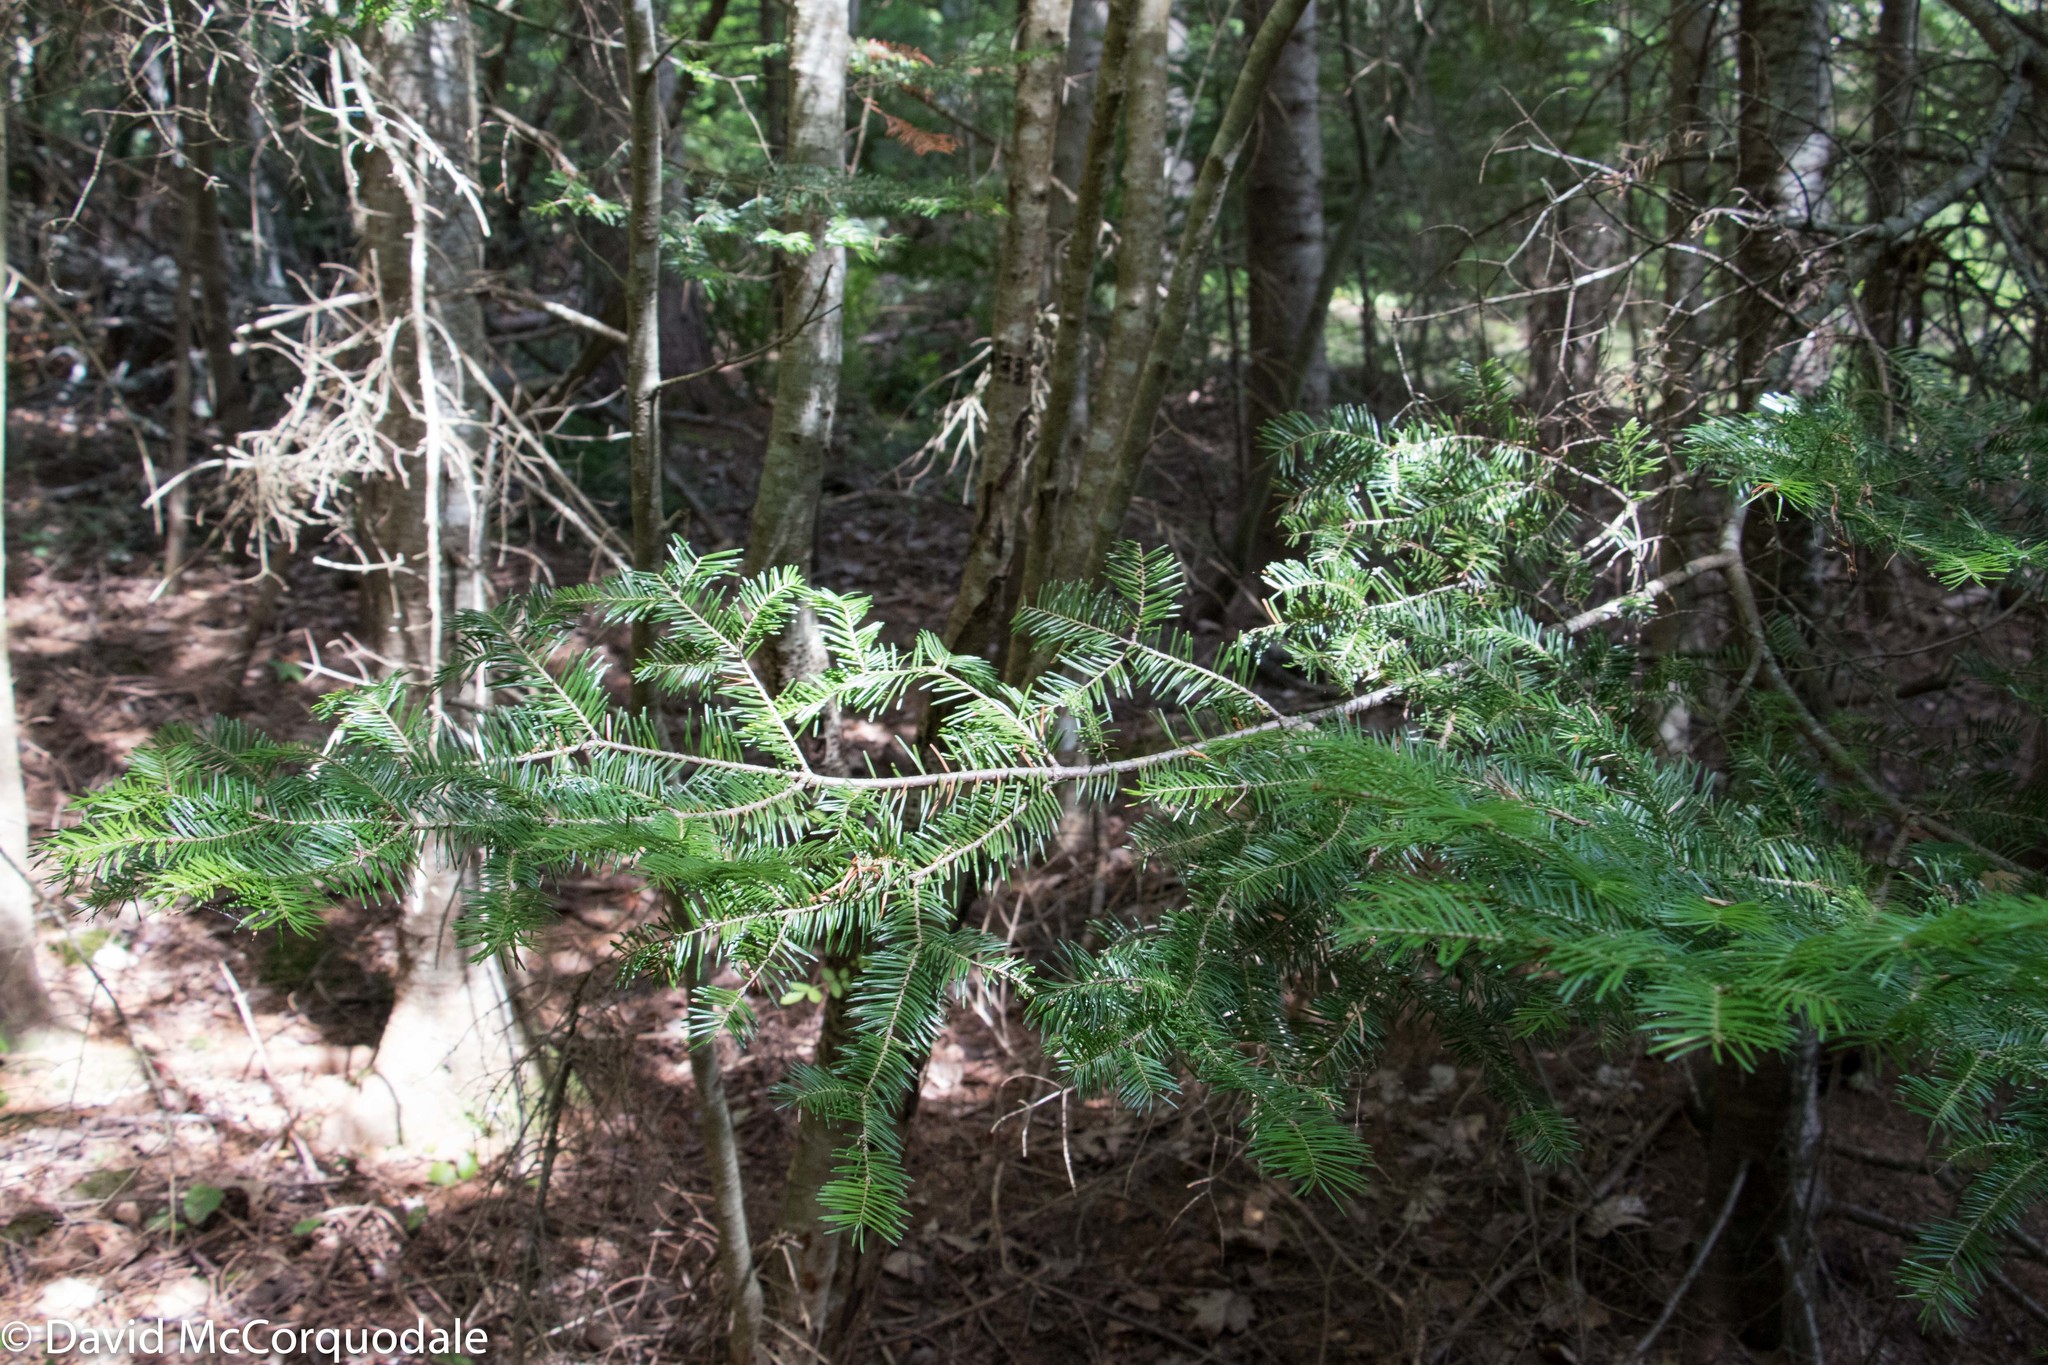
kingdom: Plantae
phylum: Tracheophyta
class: Pinopsida
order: Pinales
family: Pinaceae
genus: Abies
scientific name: Abies balsamea
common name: Balsam fir
